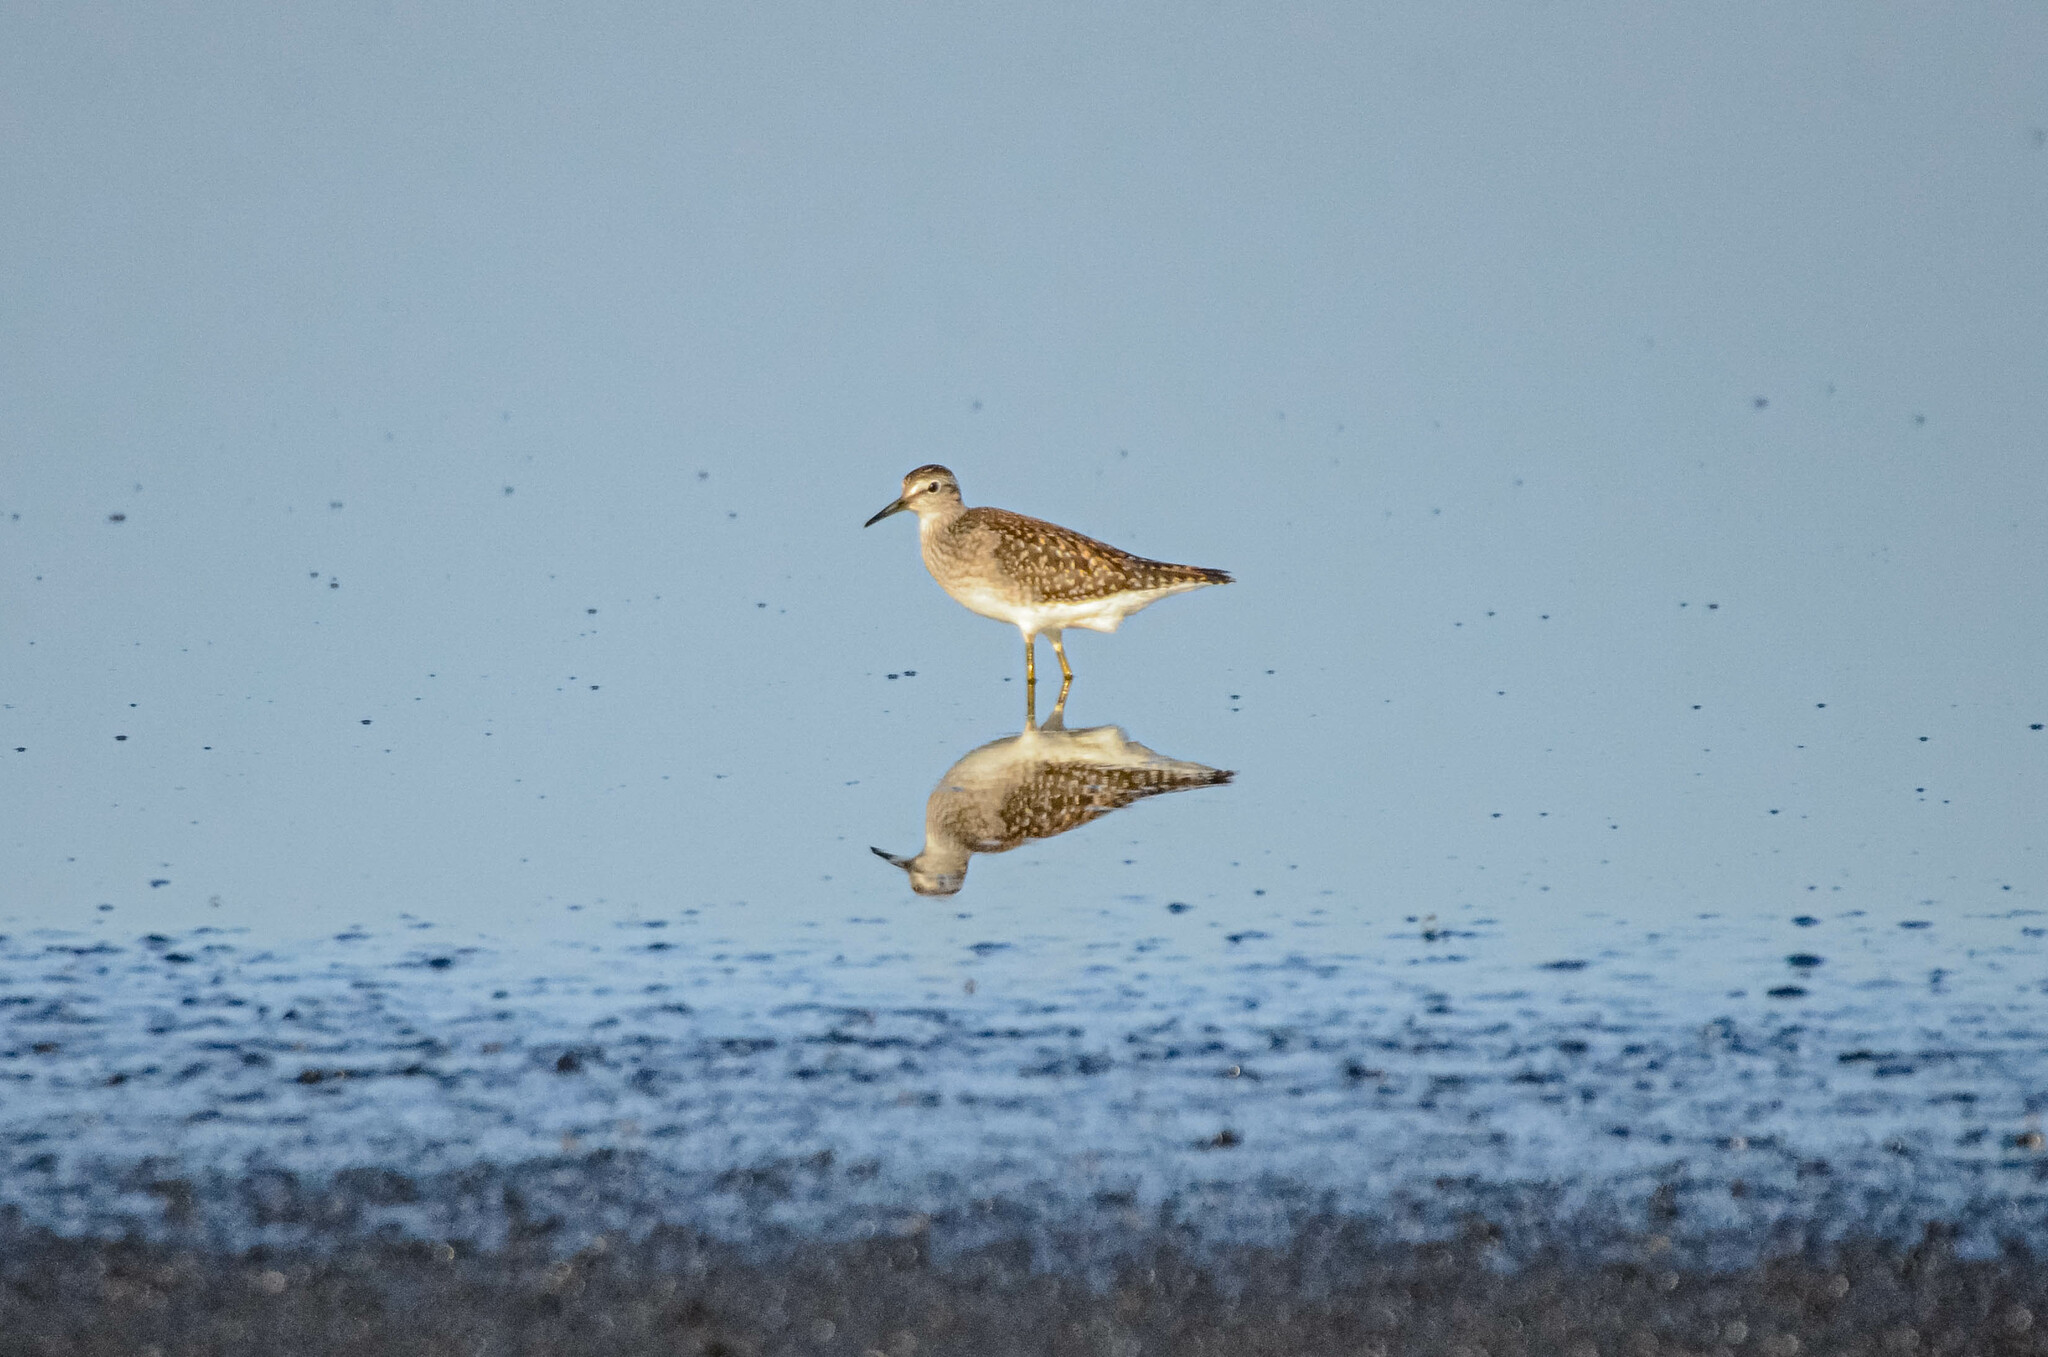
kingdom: Animalia
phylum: Chordata
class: Aves
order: Charadriiformes
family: Scolopacidae
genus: Tringa
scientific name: Tringa glareola
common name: Wood sandpiper
